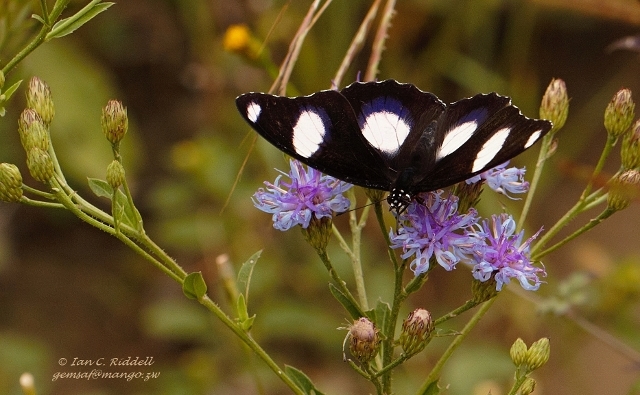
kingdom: Animalia
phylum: Arthropoda
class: Insecta
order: Lepidoptera
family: Nymphalidae
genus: Hypolimnas
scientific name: Hypolimnas misippus
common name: False plain tiger
